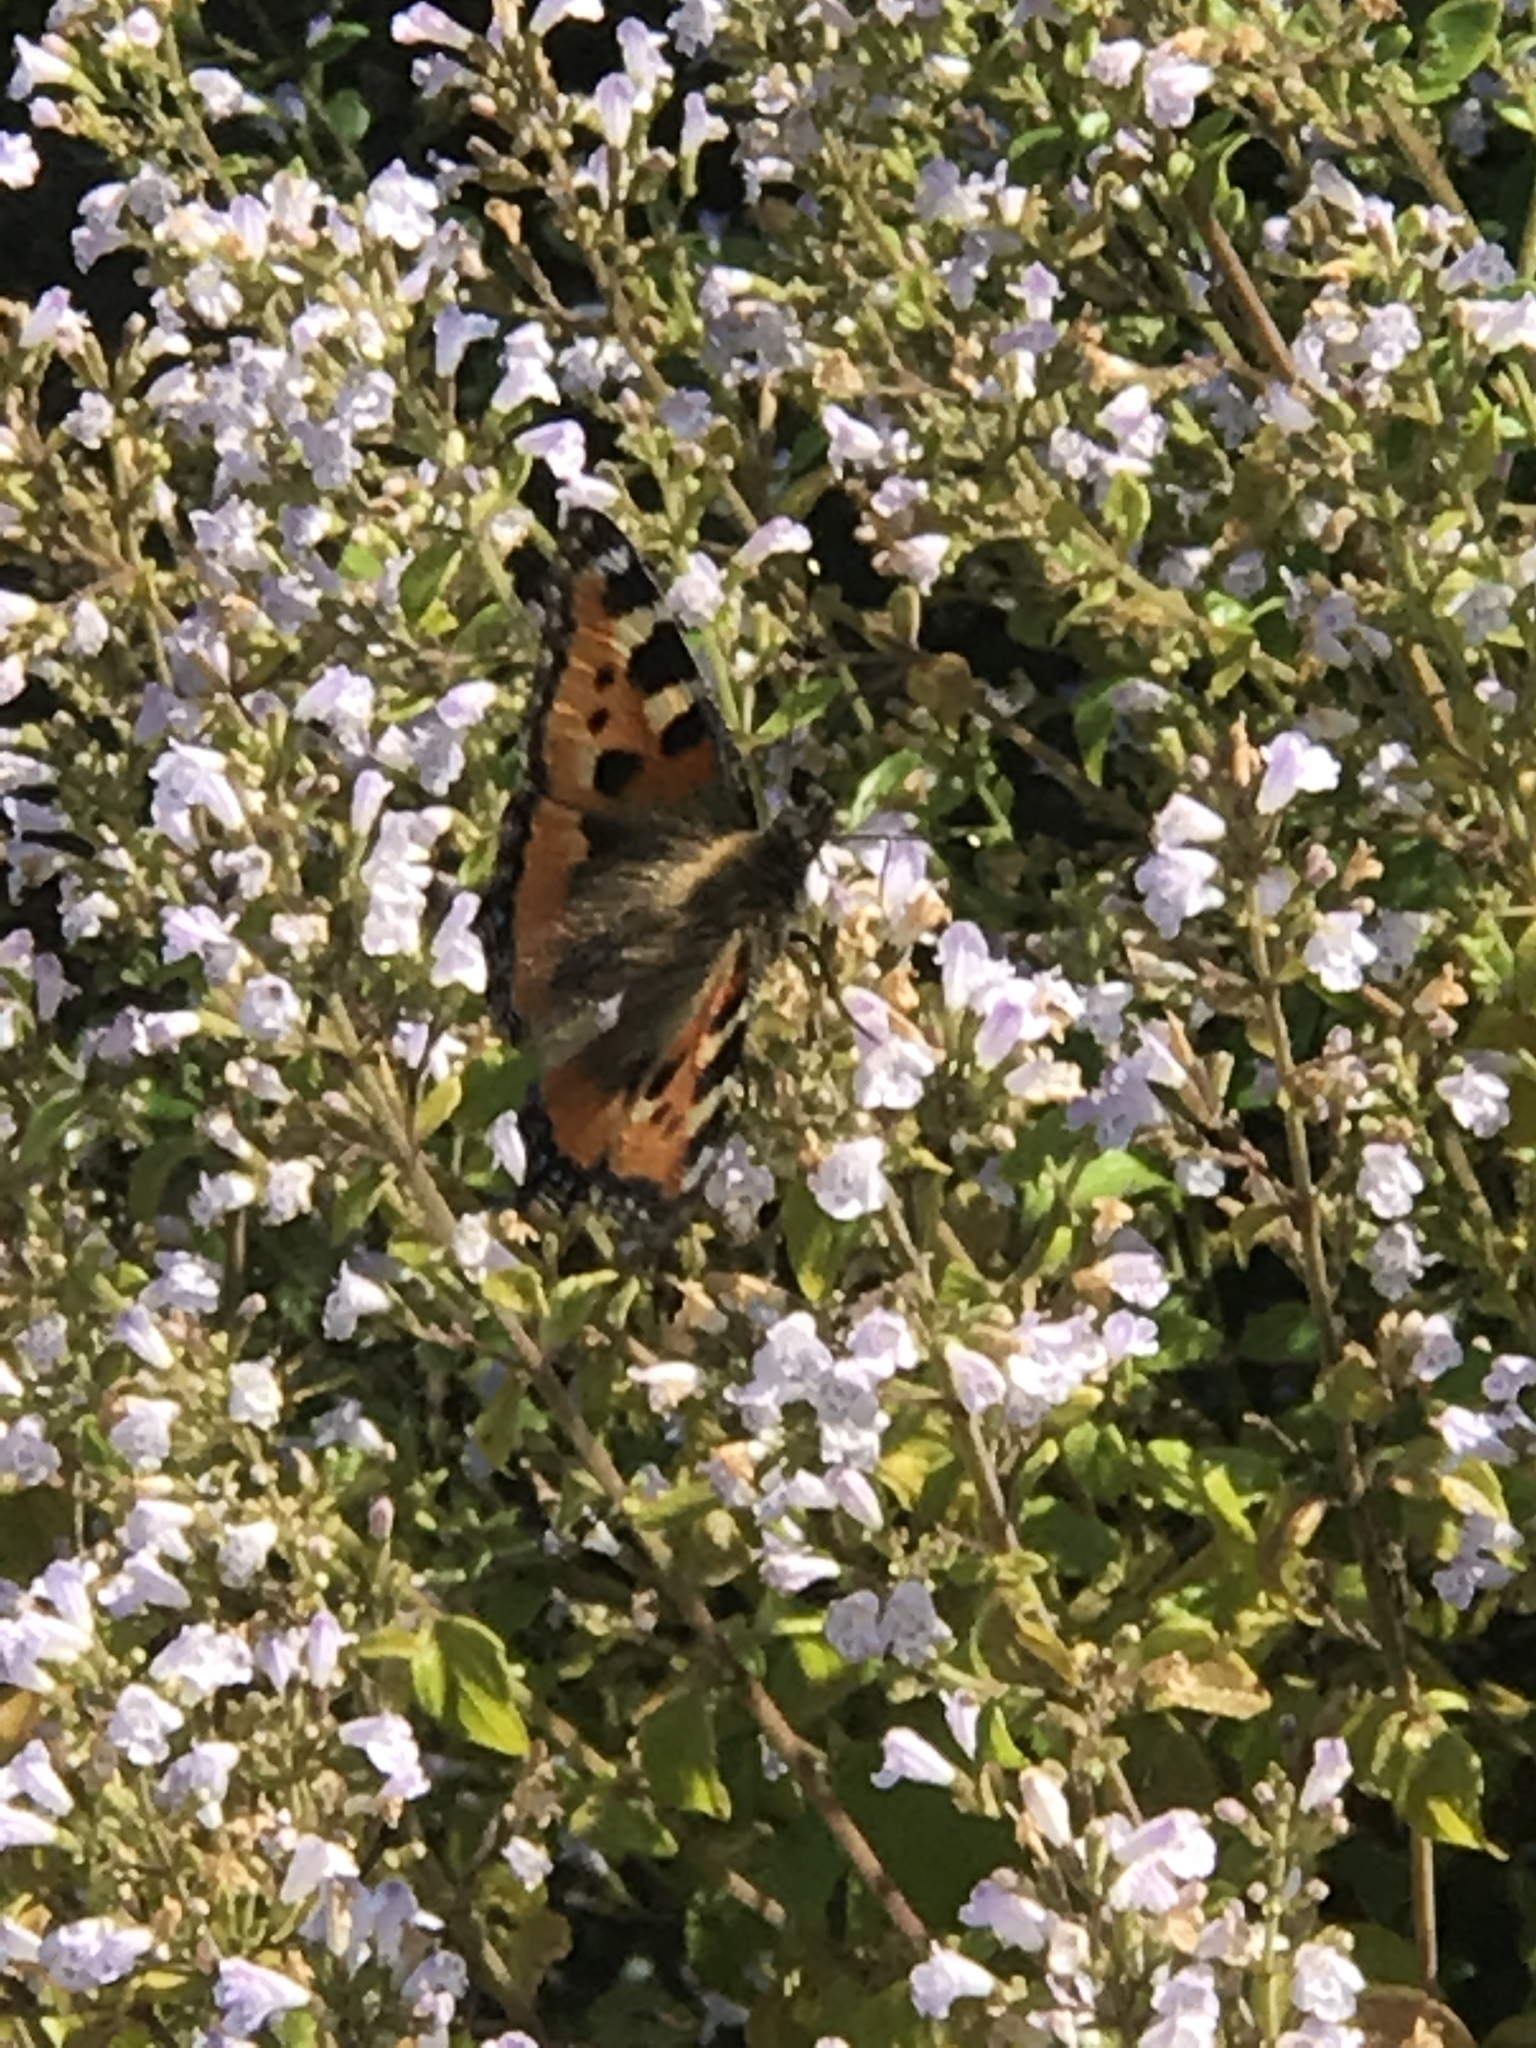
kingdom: Animalia
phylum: Arthropoda
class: Insecta
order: Lepidoptera
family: Nymphalidae
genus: Aglais
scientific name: Aglais urticae
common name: Small tortoiseshell
